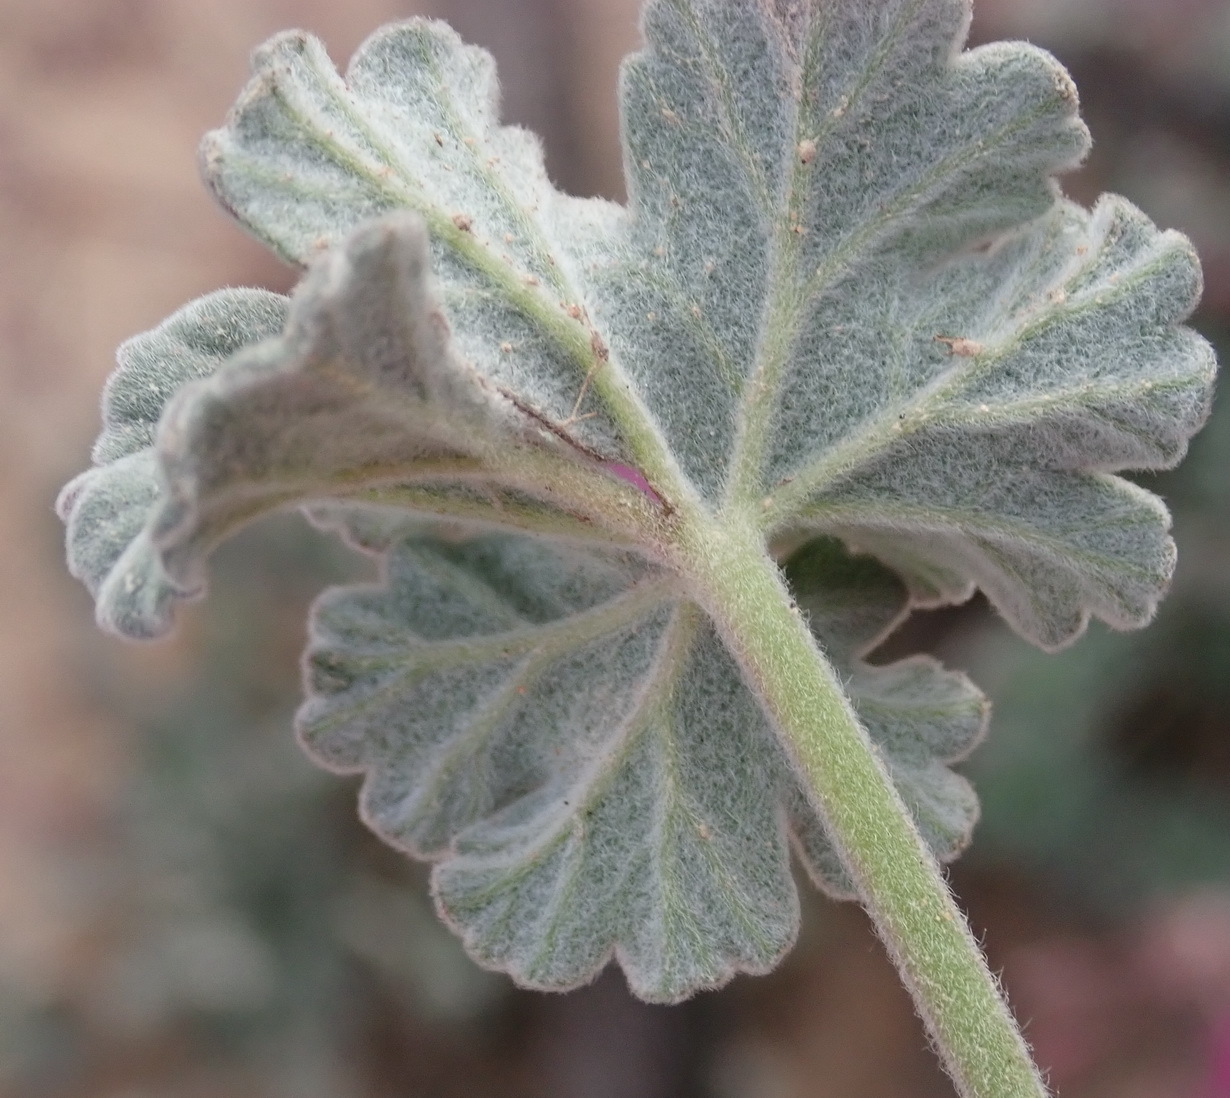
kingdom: Plantae
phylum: Tracheophyta
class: Magnoliopsida
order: Geraniales
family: Geraniaceae
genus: Pelargonium
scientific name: Pelargonium reniforme
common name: Kidney-leaf pelargonium
